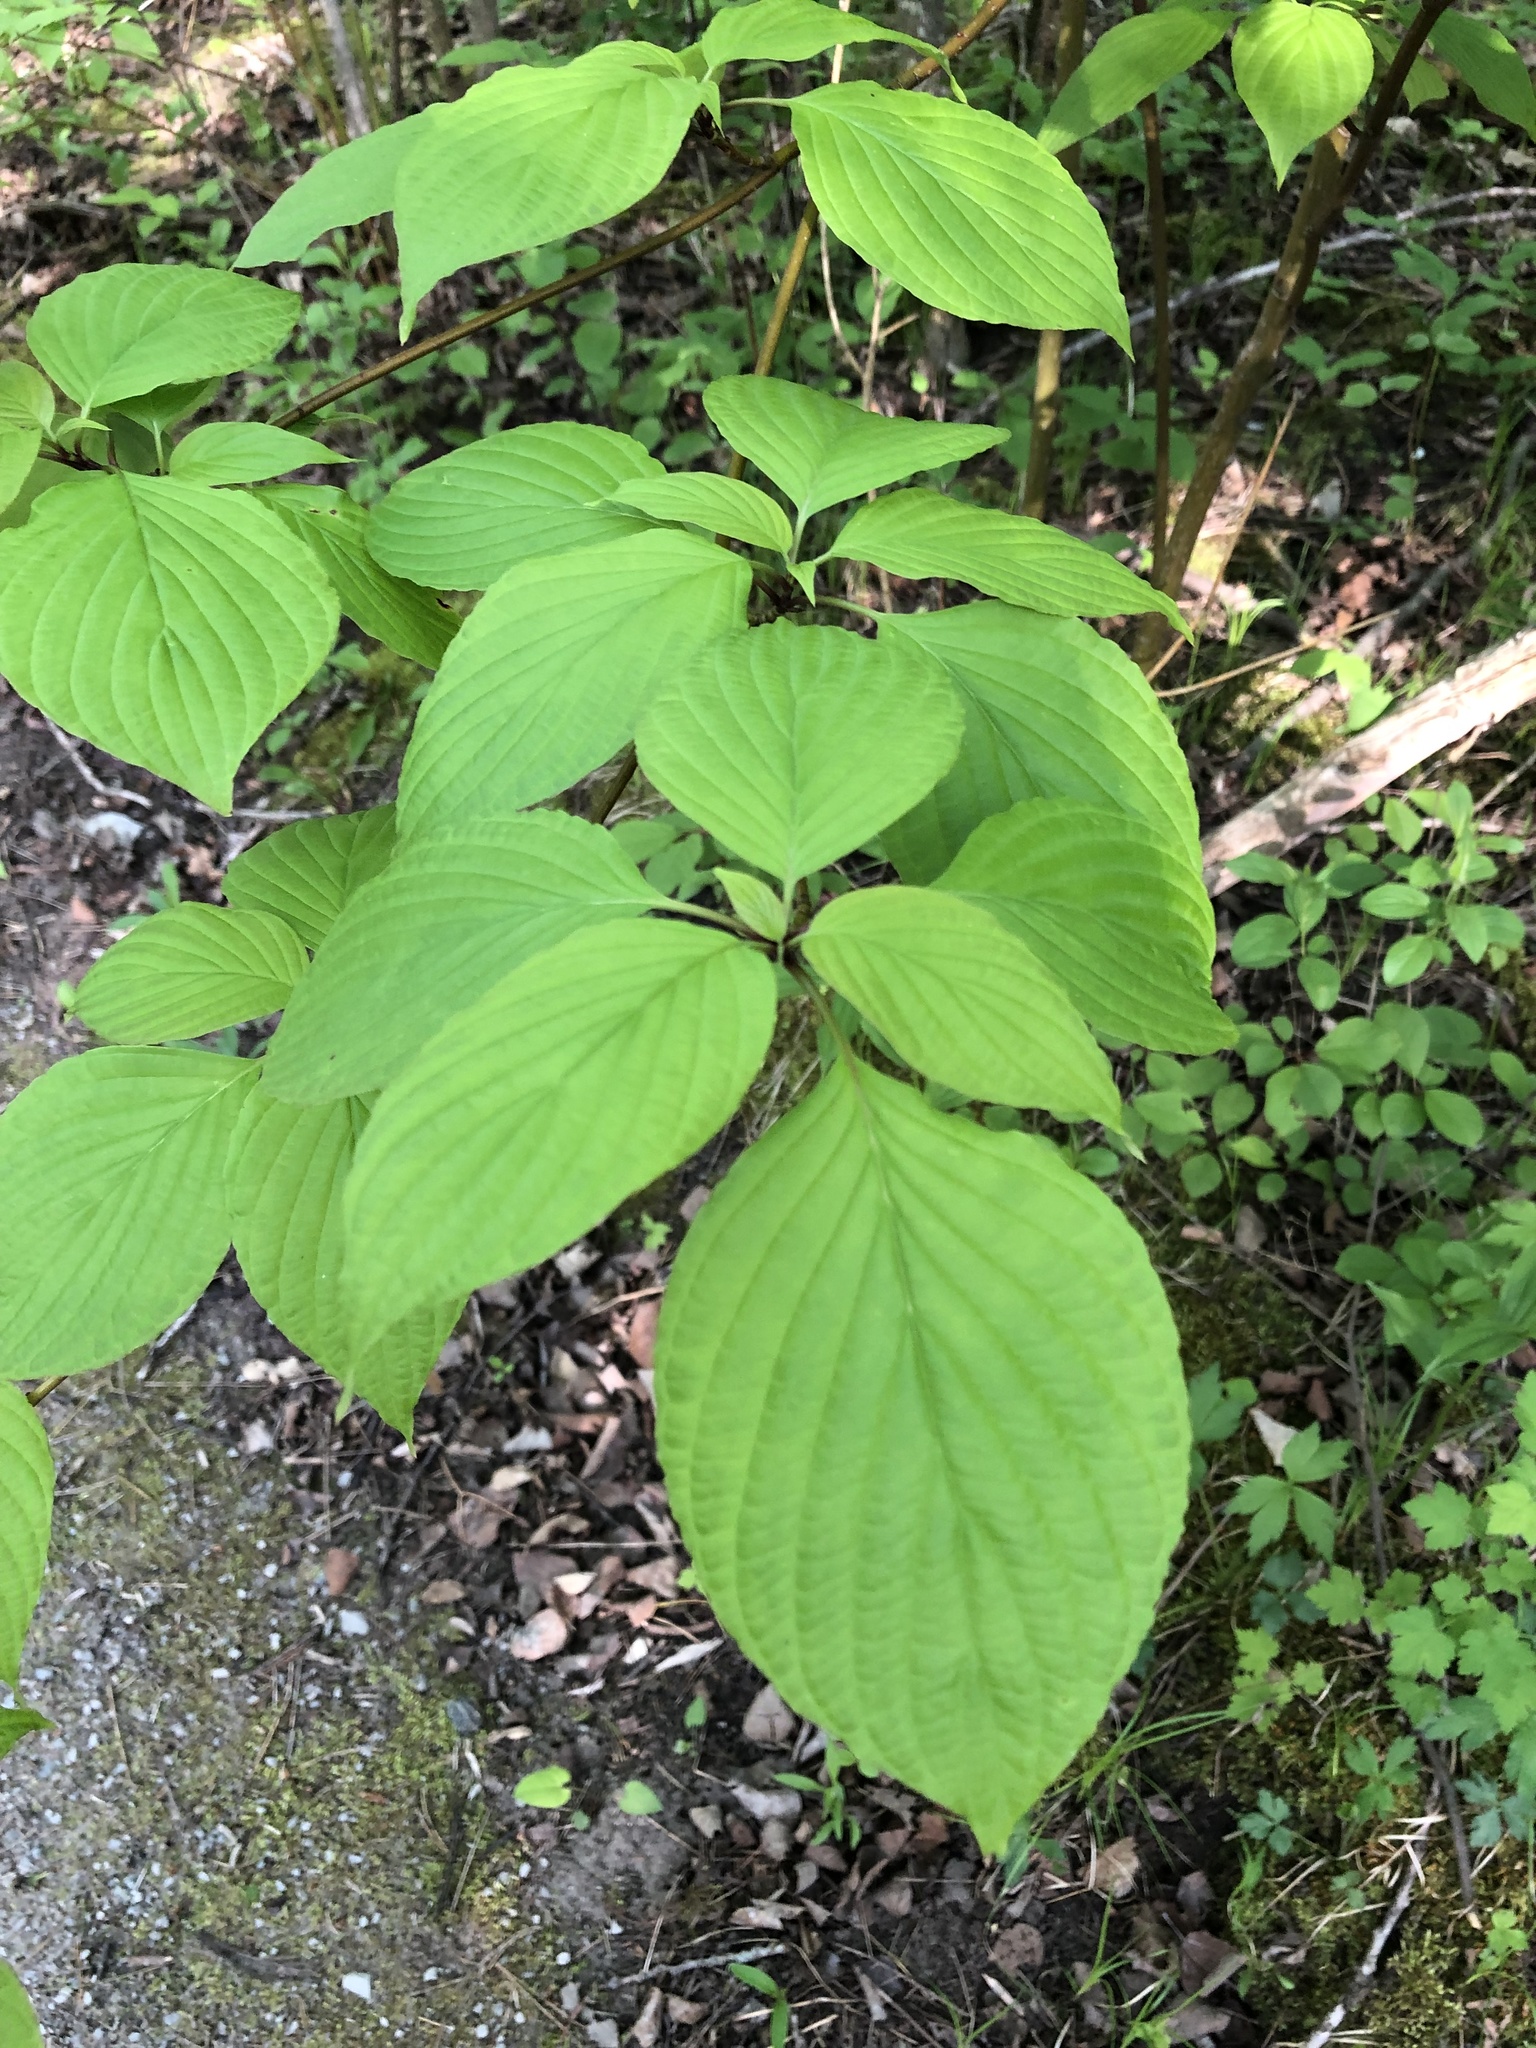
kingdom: Plantae
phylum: Tracheophyta
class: Magnoliopsida
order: Cornales
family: Cornaceae
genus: Cornus
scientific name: Cornus alternifolia
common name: Pagoda dogwood
